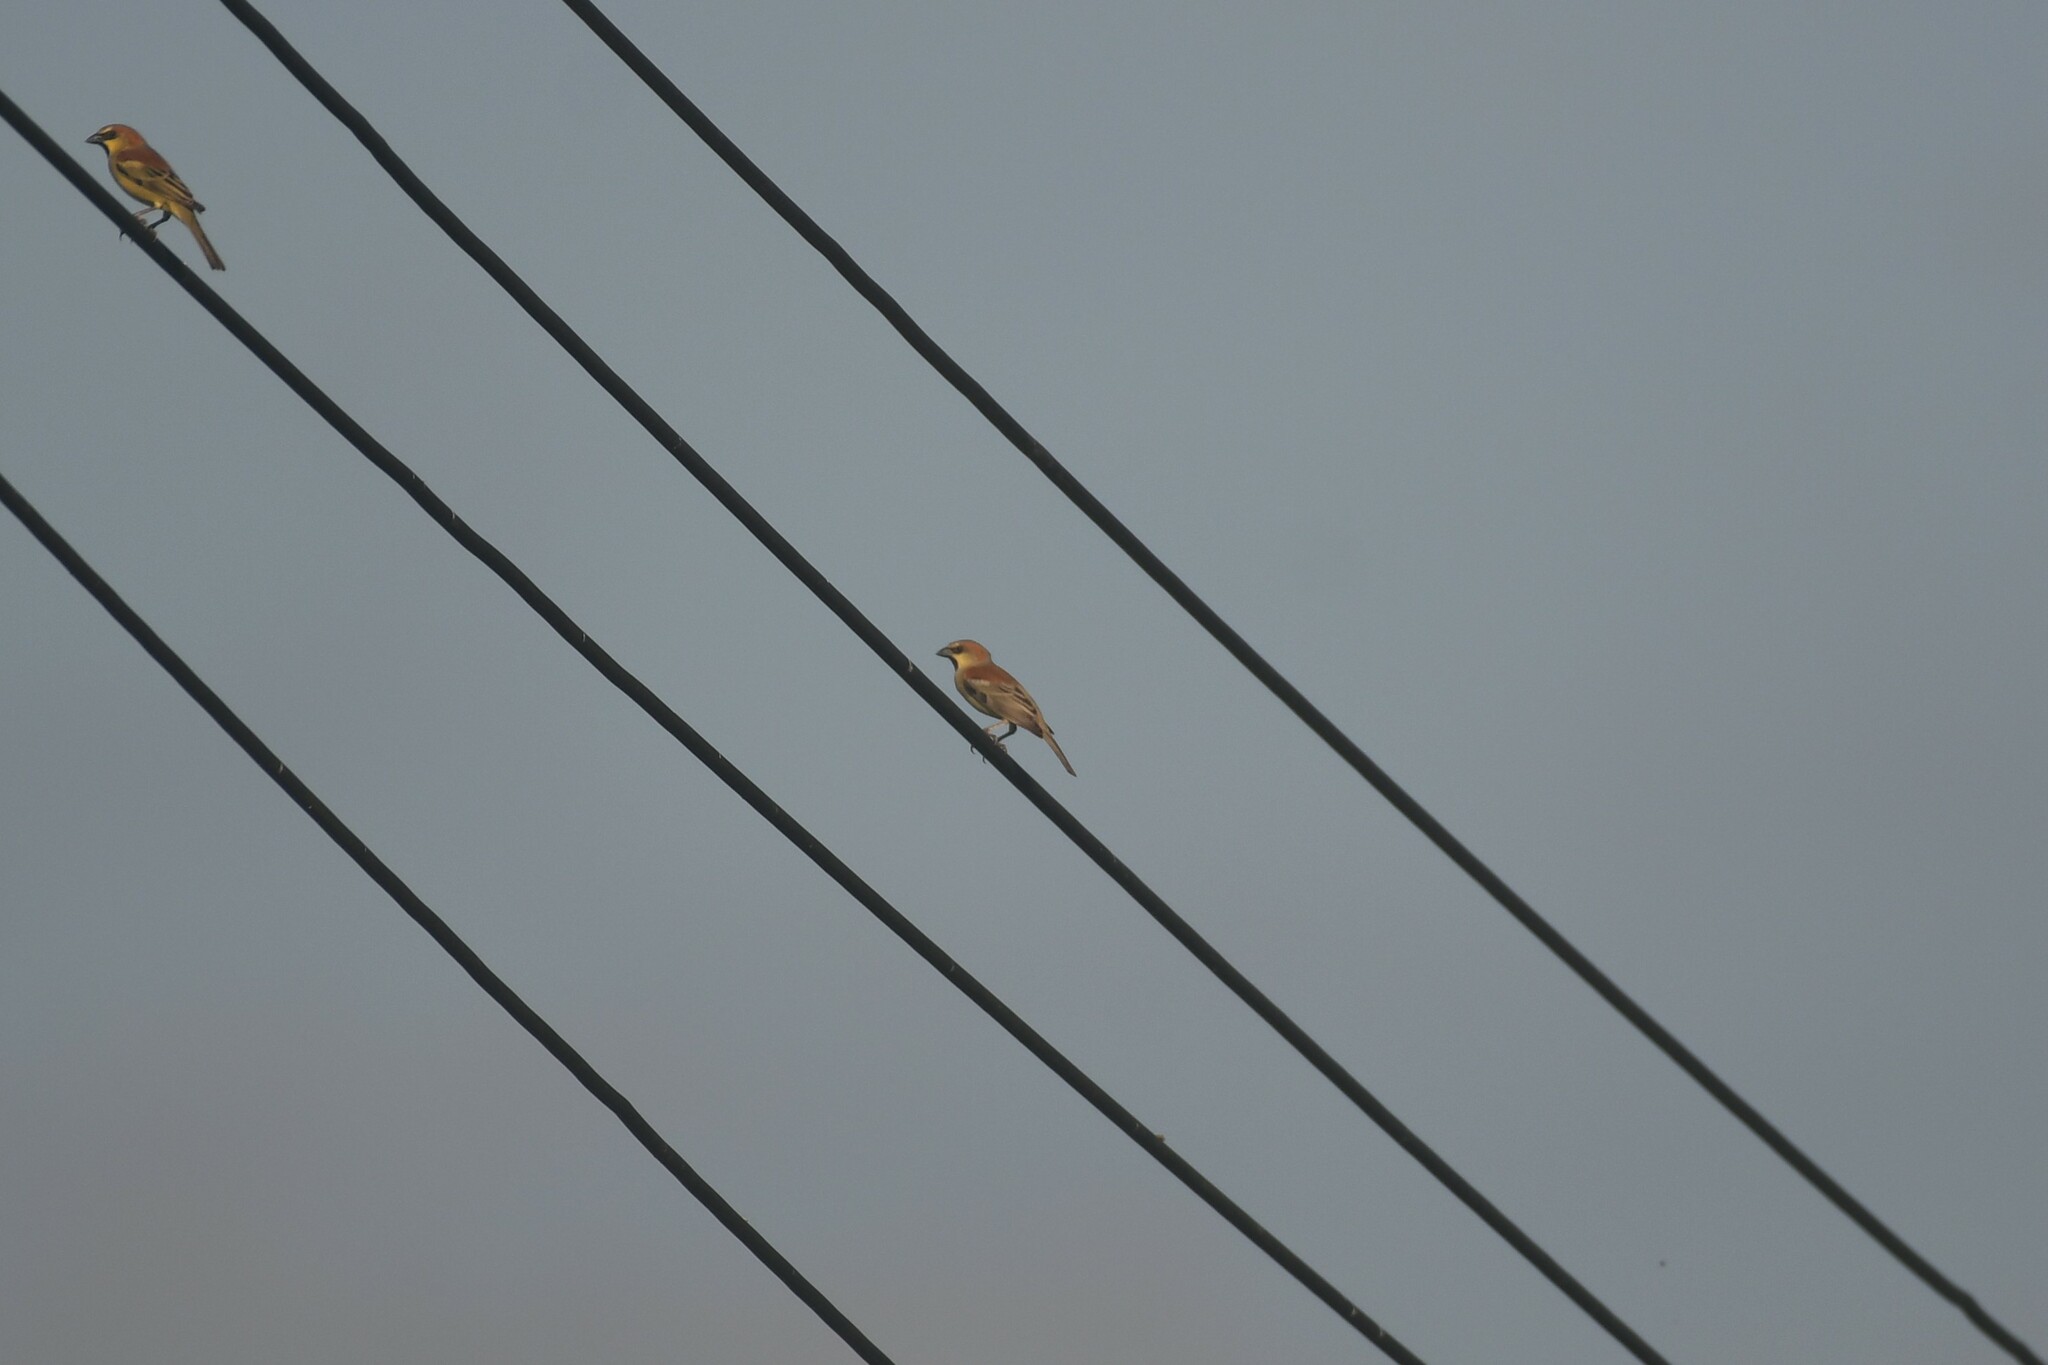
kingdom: Animalia
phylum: Chordata
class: Aves
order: Passeriformes
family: Passeridae
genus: Passer
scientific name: Passer flaveolus
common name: Plain-backed sparrow
